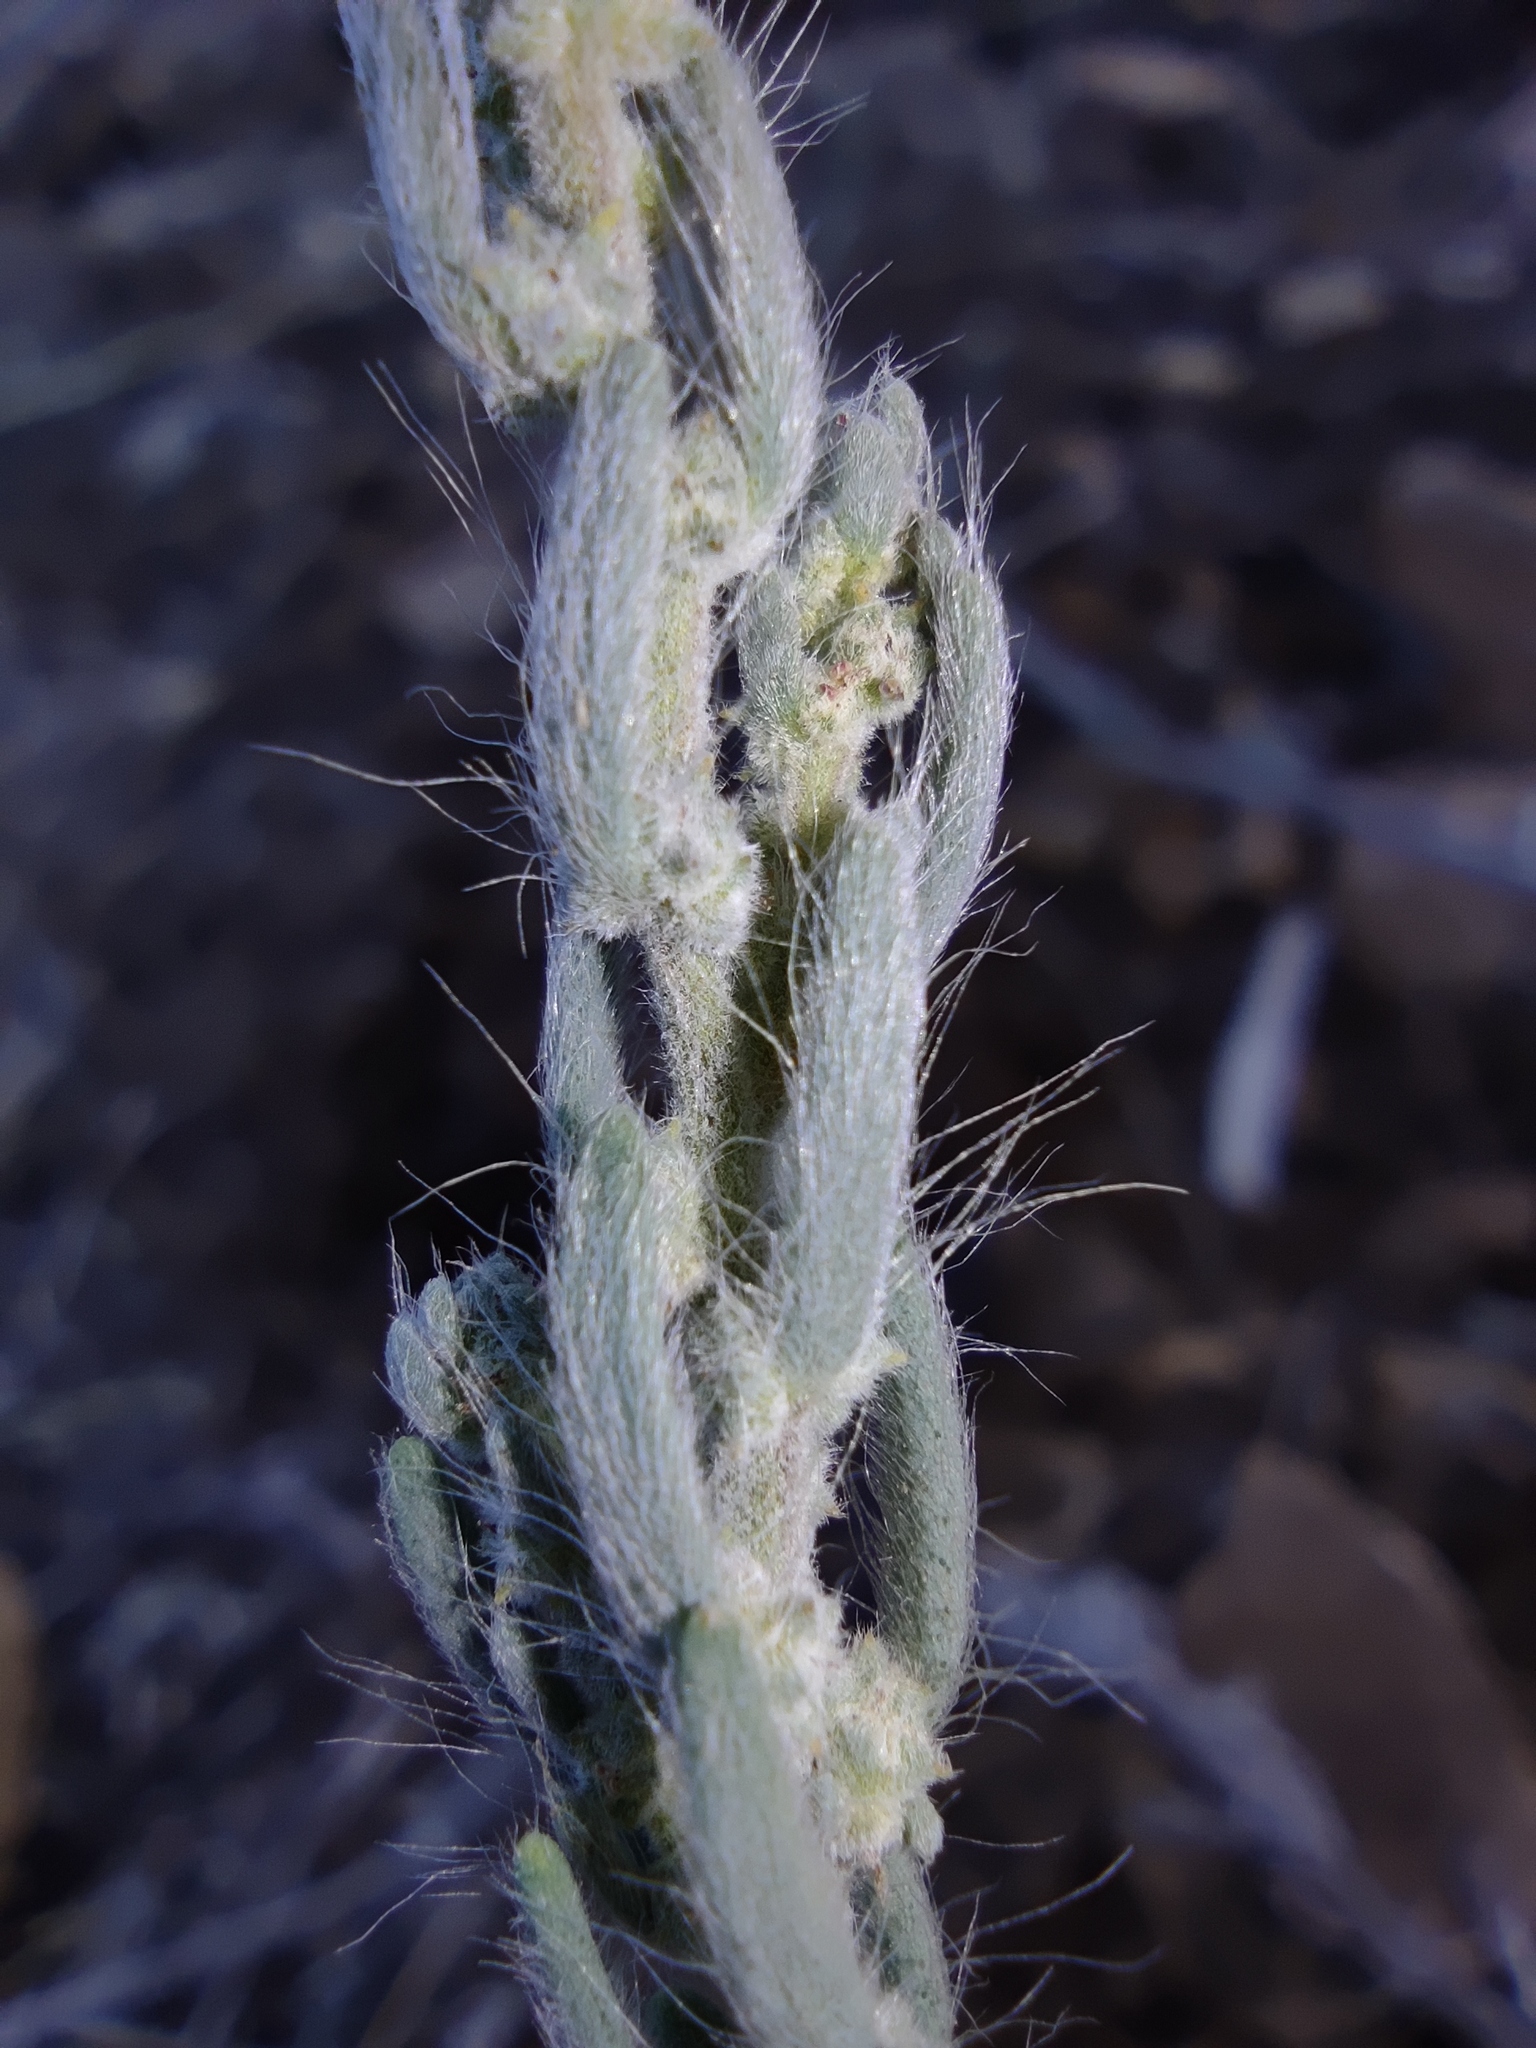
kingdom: Plantae
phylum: Tracheophyta
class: Magnoliopsida
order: Caryophyllales
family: Amaranthaceae
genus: Sedobassia
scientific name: Sedobassia sedoides
